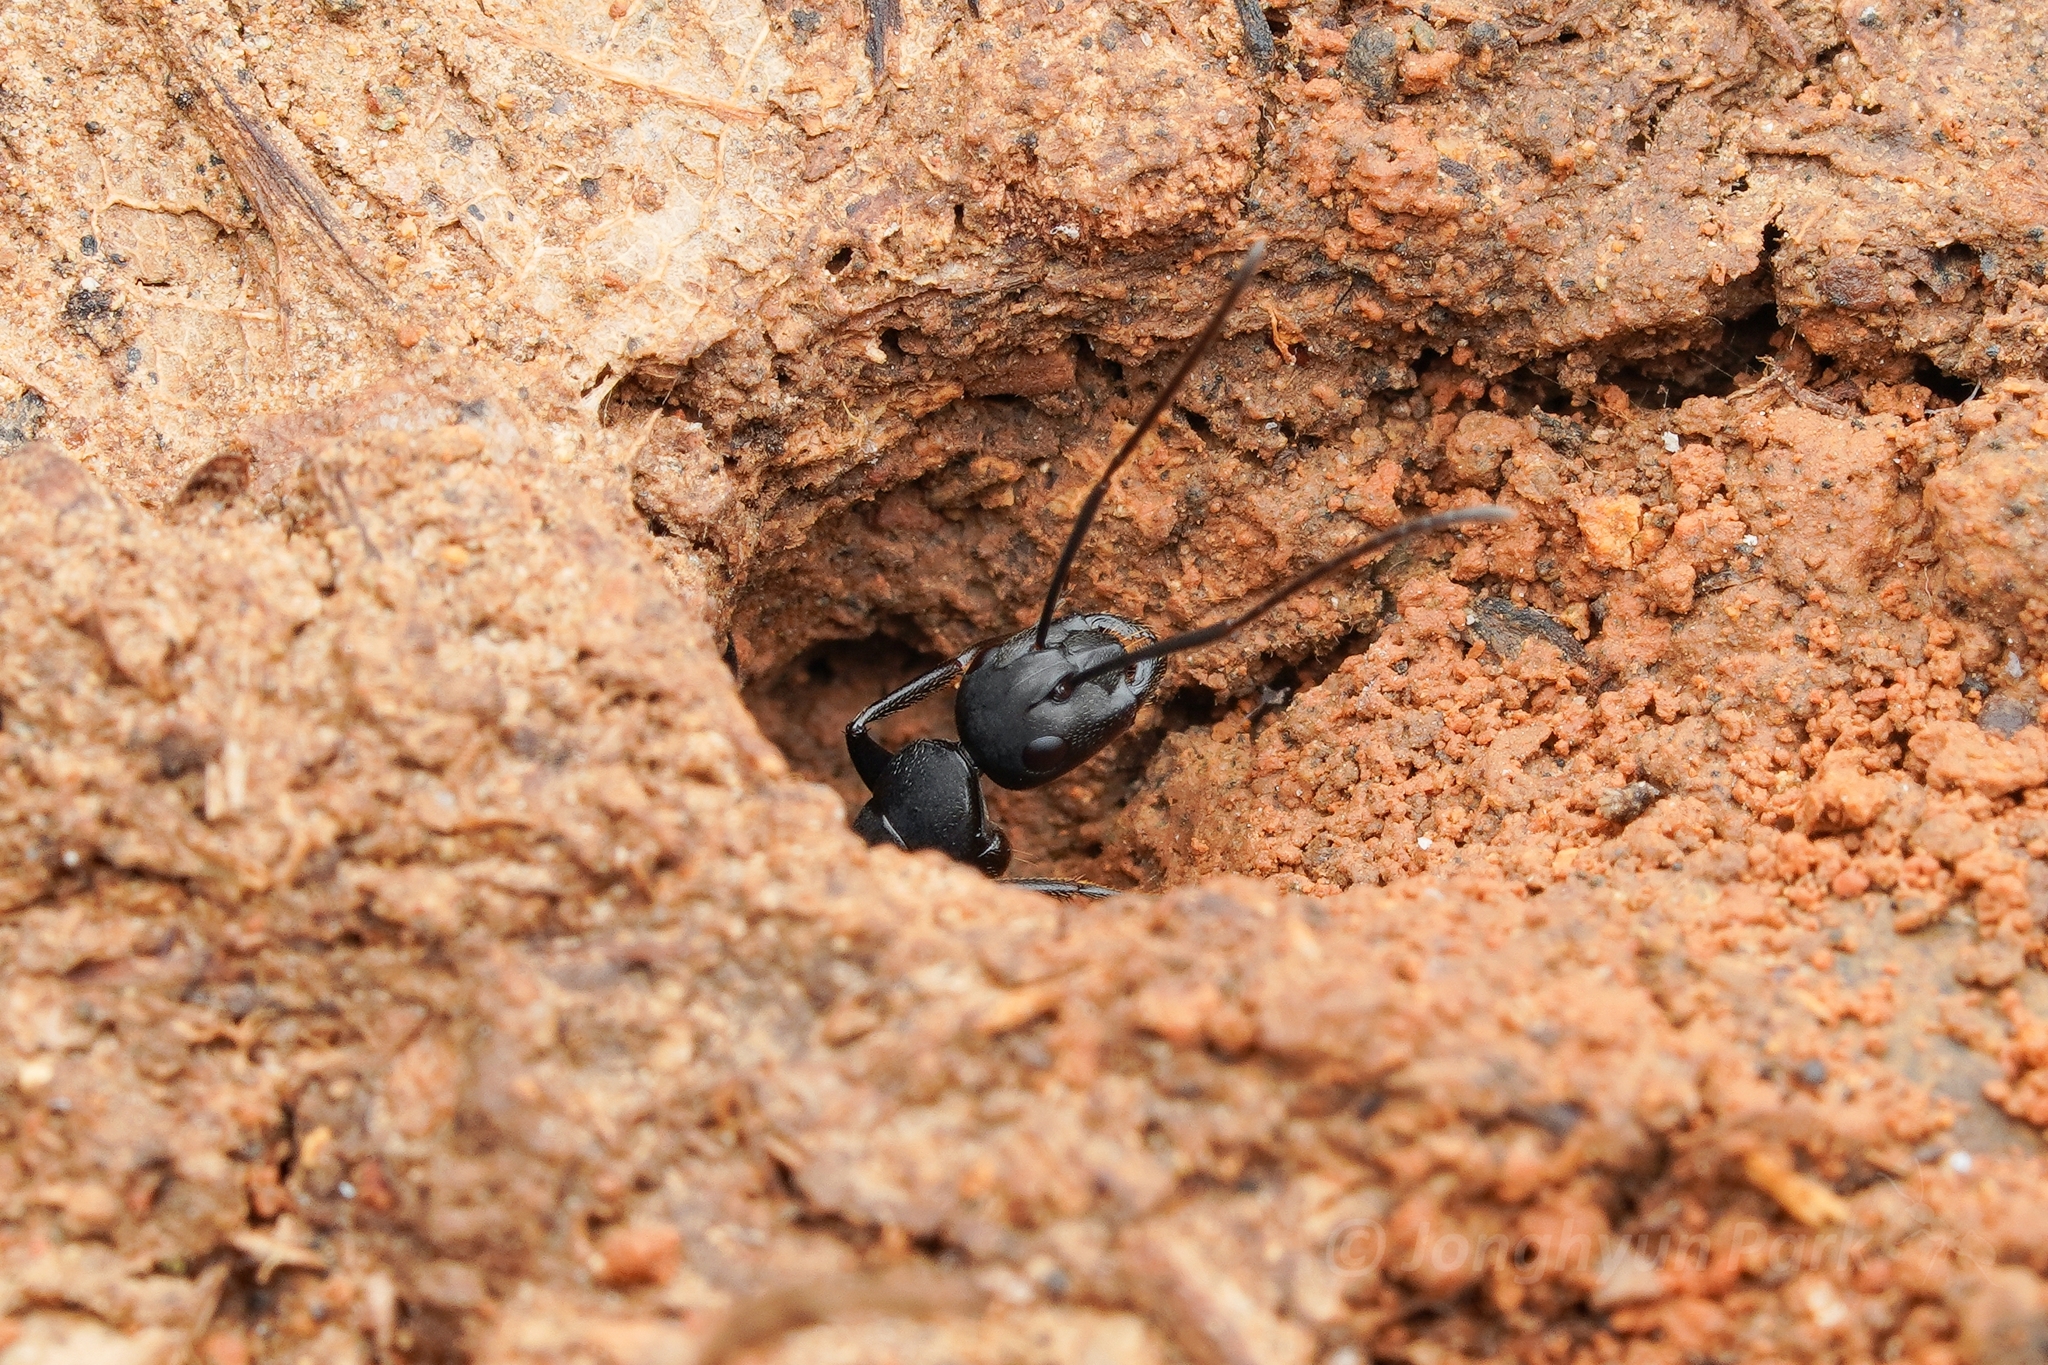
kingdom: Animalia
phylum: Arthropoda
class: Insecta
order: Hymenoptera
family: Formicidae
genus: Camponotus
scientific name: Camponotus japonicus
